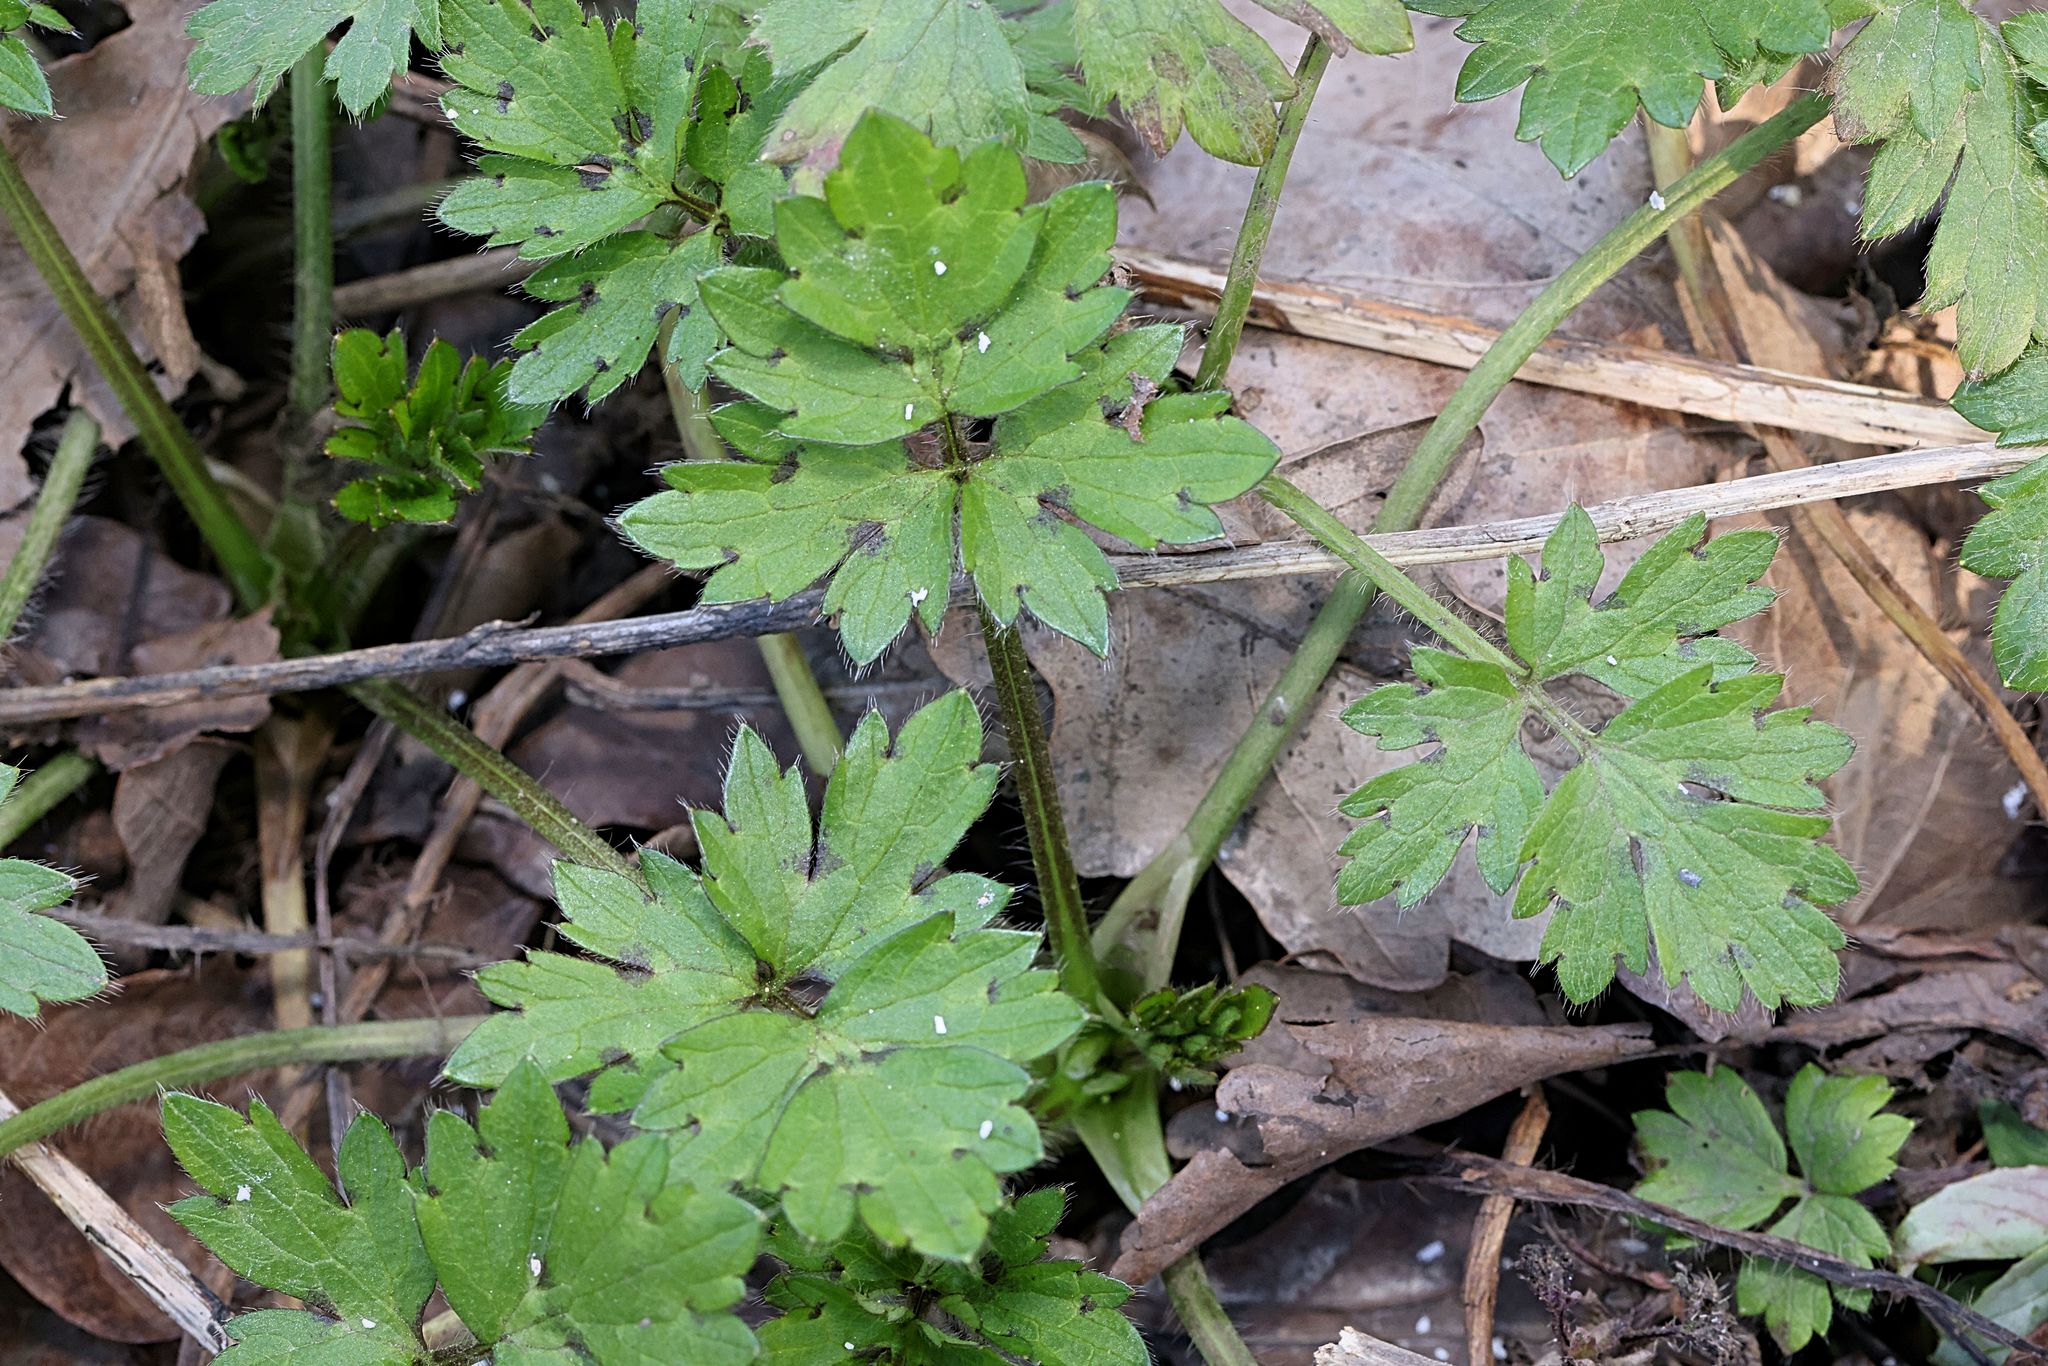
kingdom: Plantae
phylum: Tracheophyta
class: Magnoliopsida
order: Ranunculales
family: Ranunculaceae
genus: Ranunculus
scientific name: Ranunculus repens
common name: Creeping buttercup
